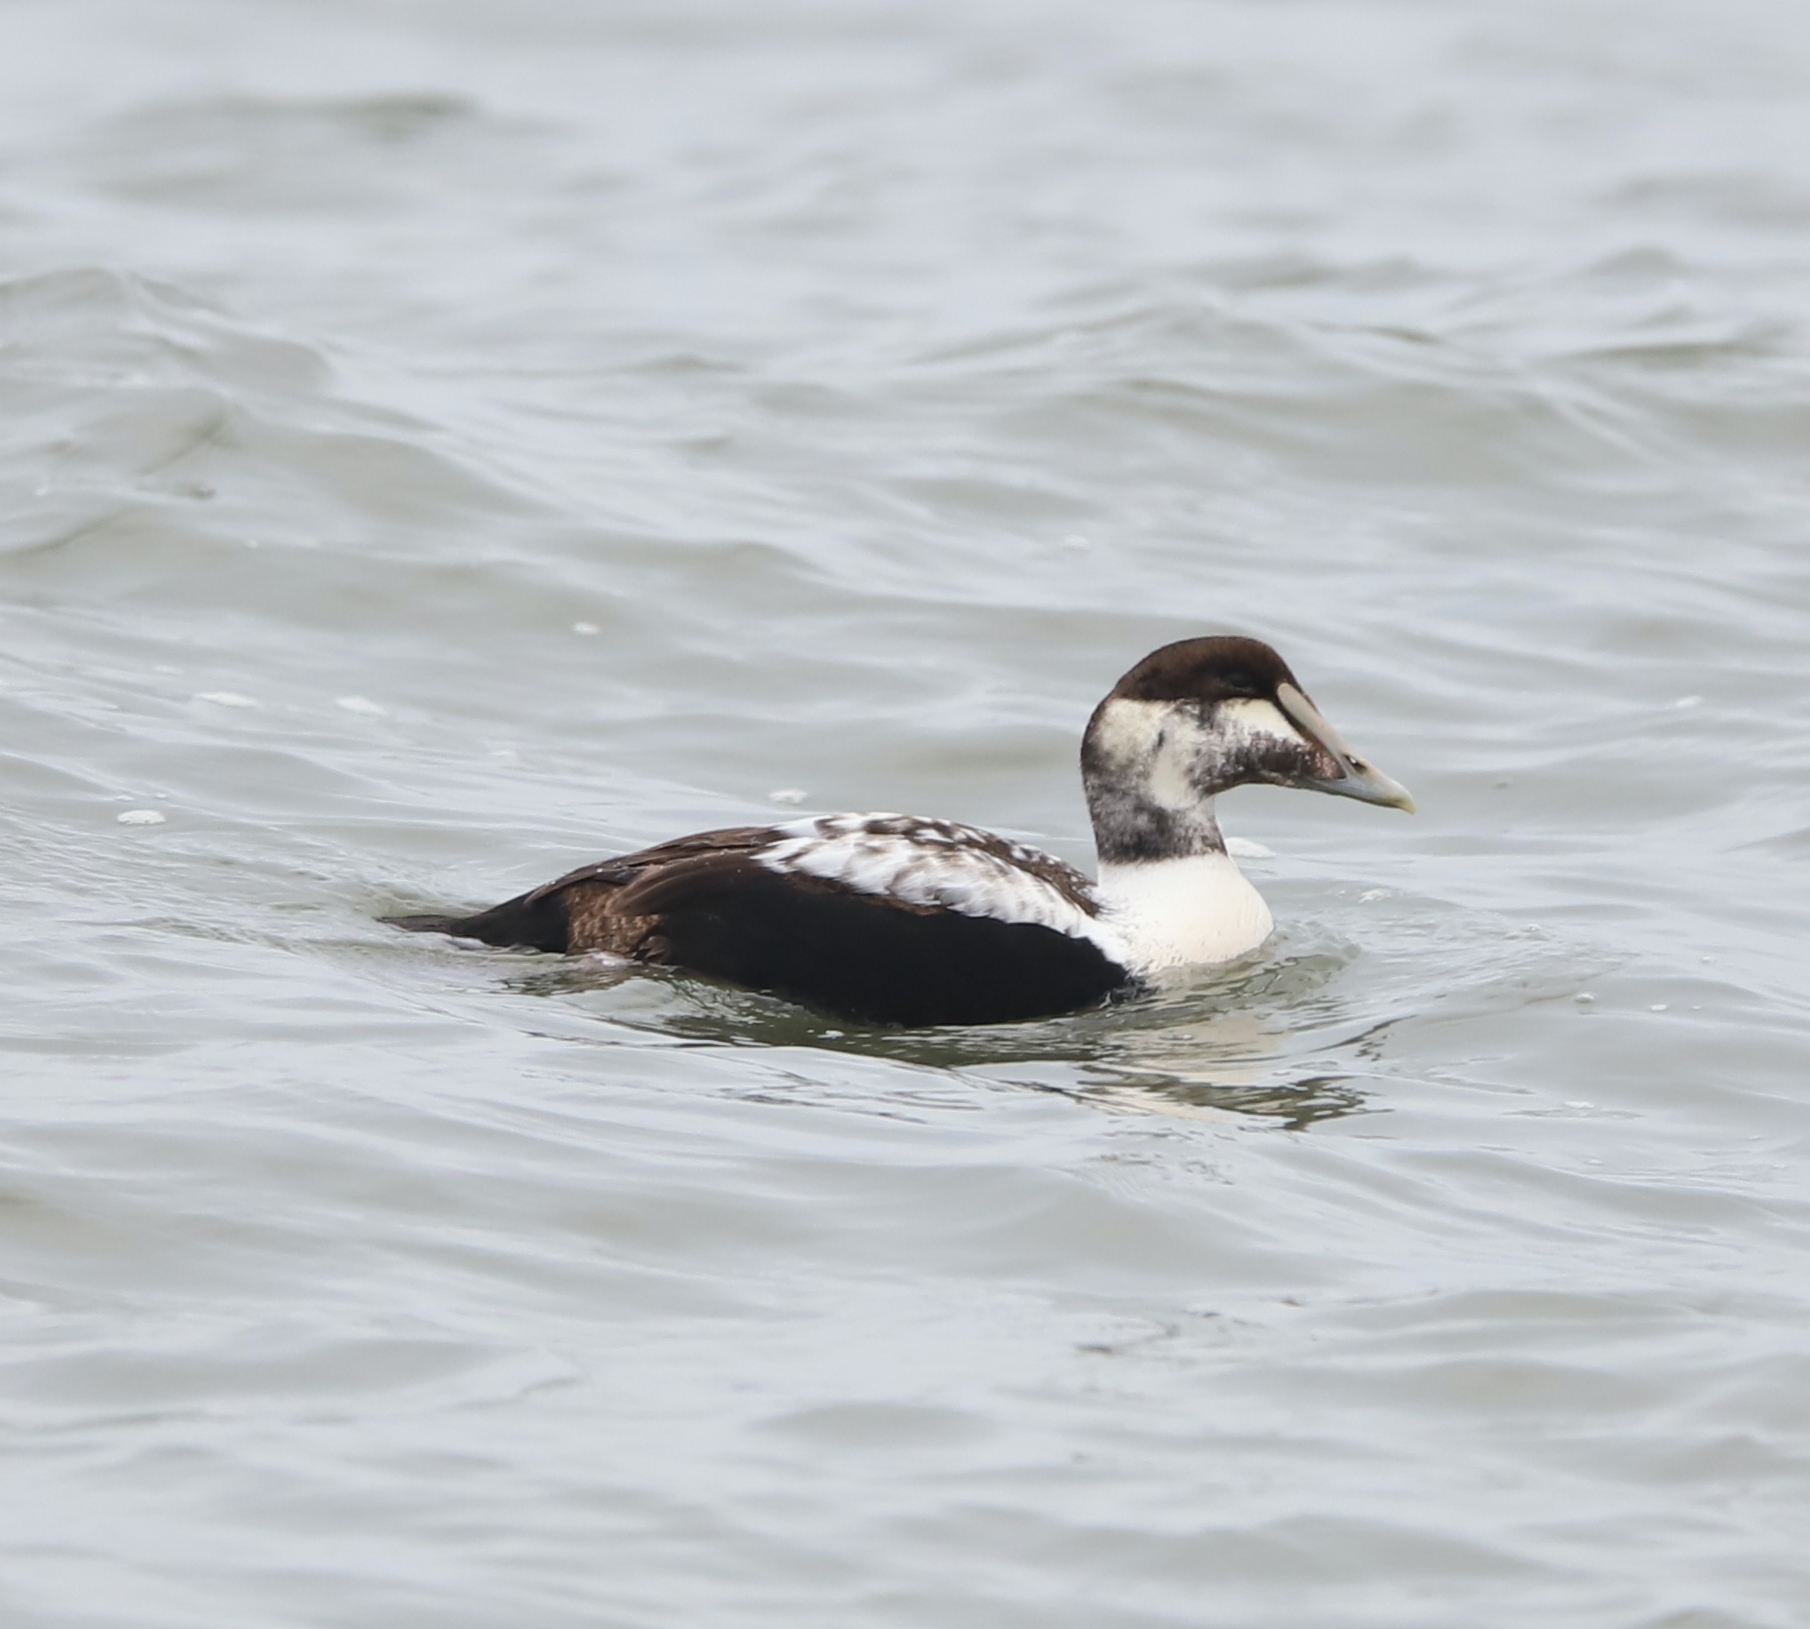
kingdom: Animalia
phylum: Chordata
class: Aves
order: Anseriformes
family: Anatidae
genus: Somateria
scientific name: Somateria mollissima
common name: Common eider
